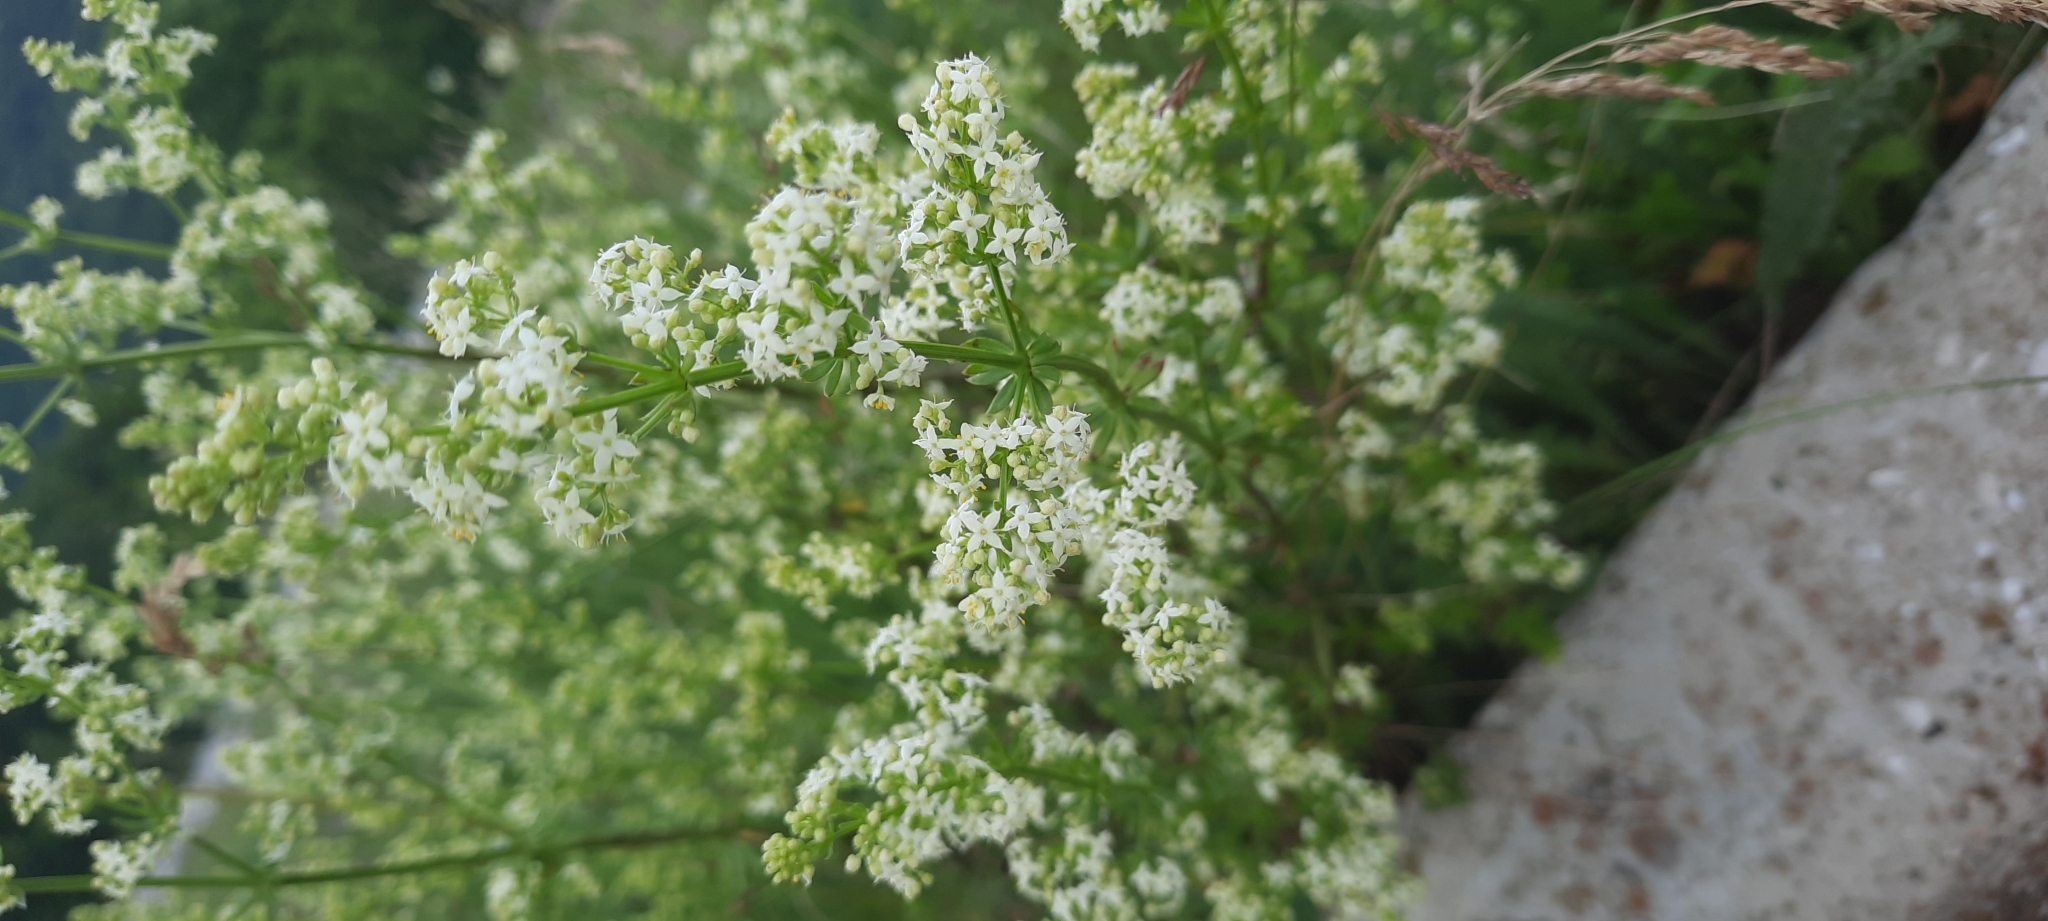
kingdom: Plantae
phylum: Tracheophyta
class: Magnoliopsida
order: Gentianales
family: Rubiaceae
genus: Galium
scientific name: Galium mollugo
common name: Hedge bedstraw
